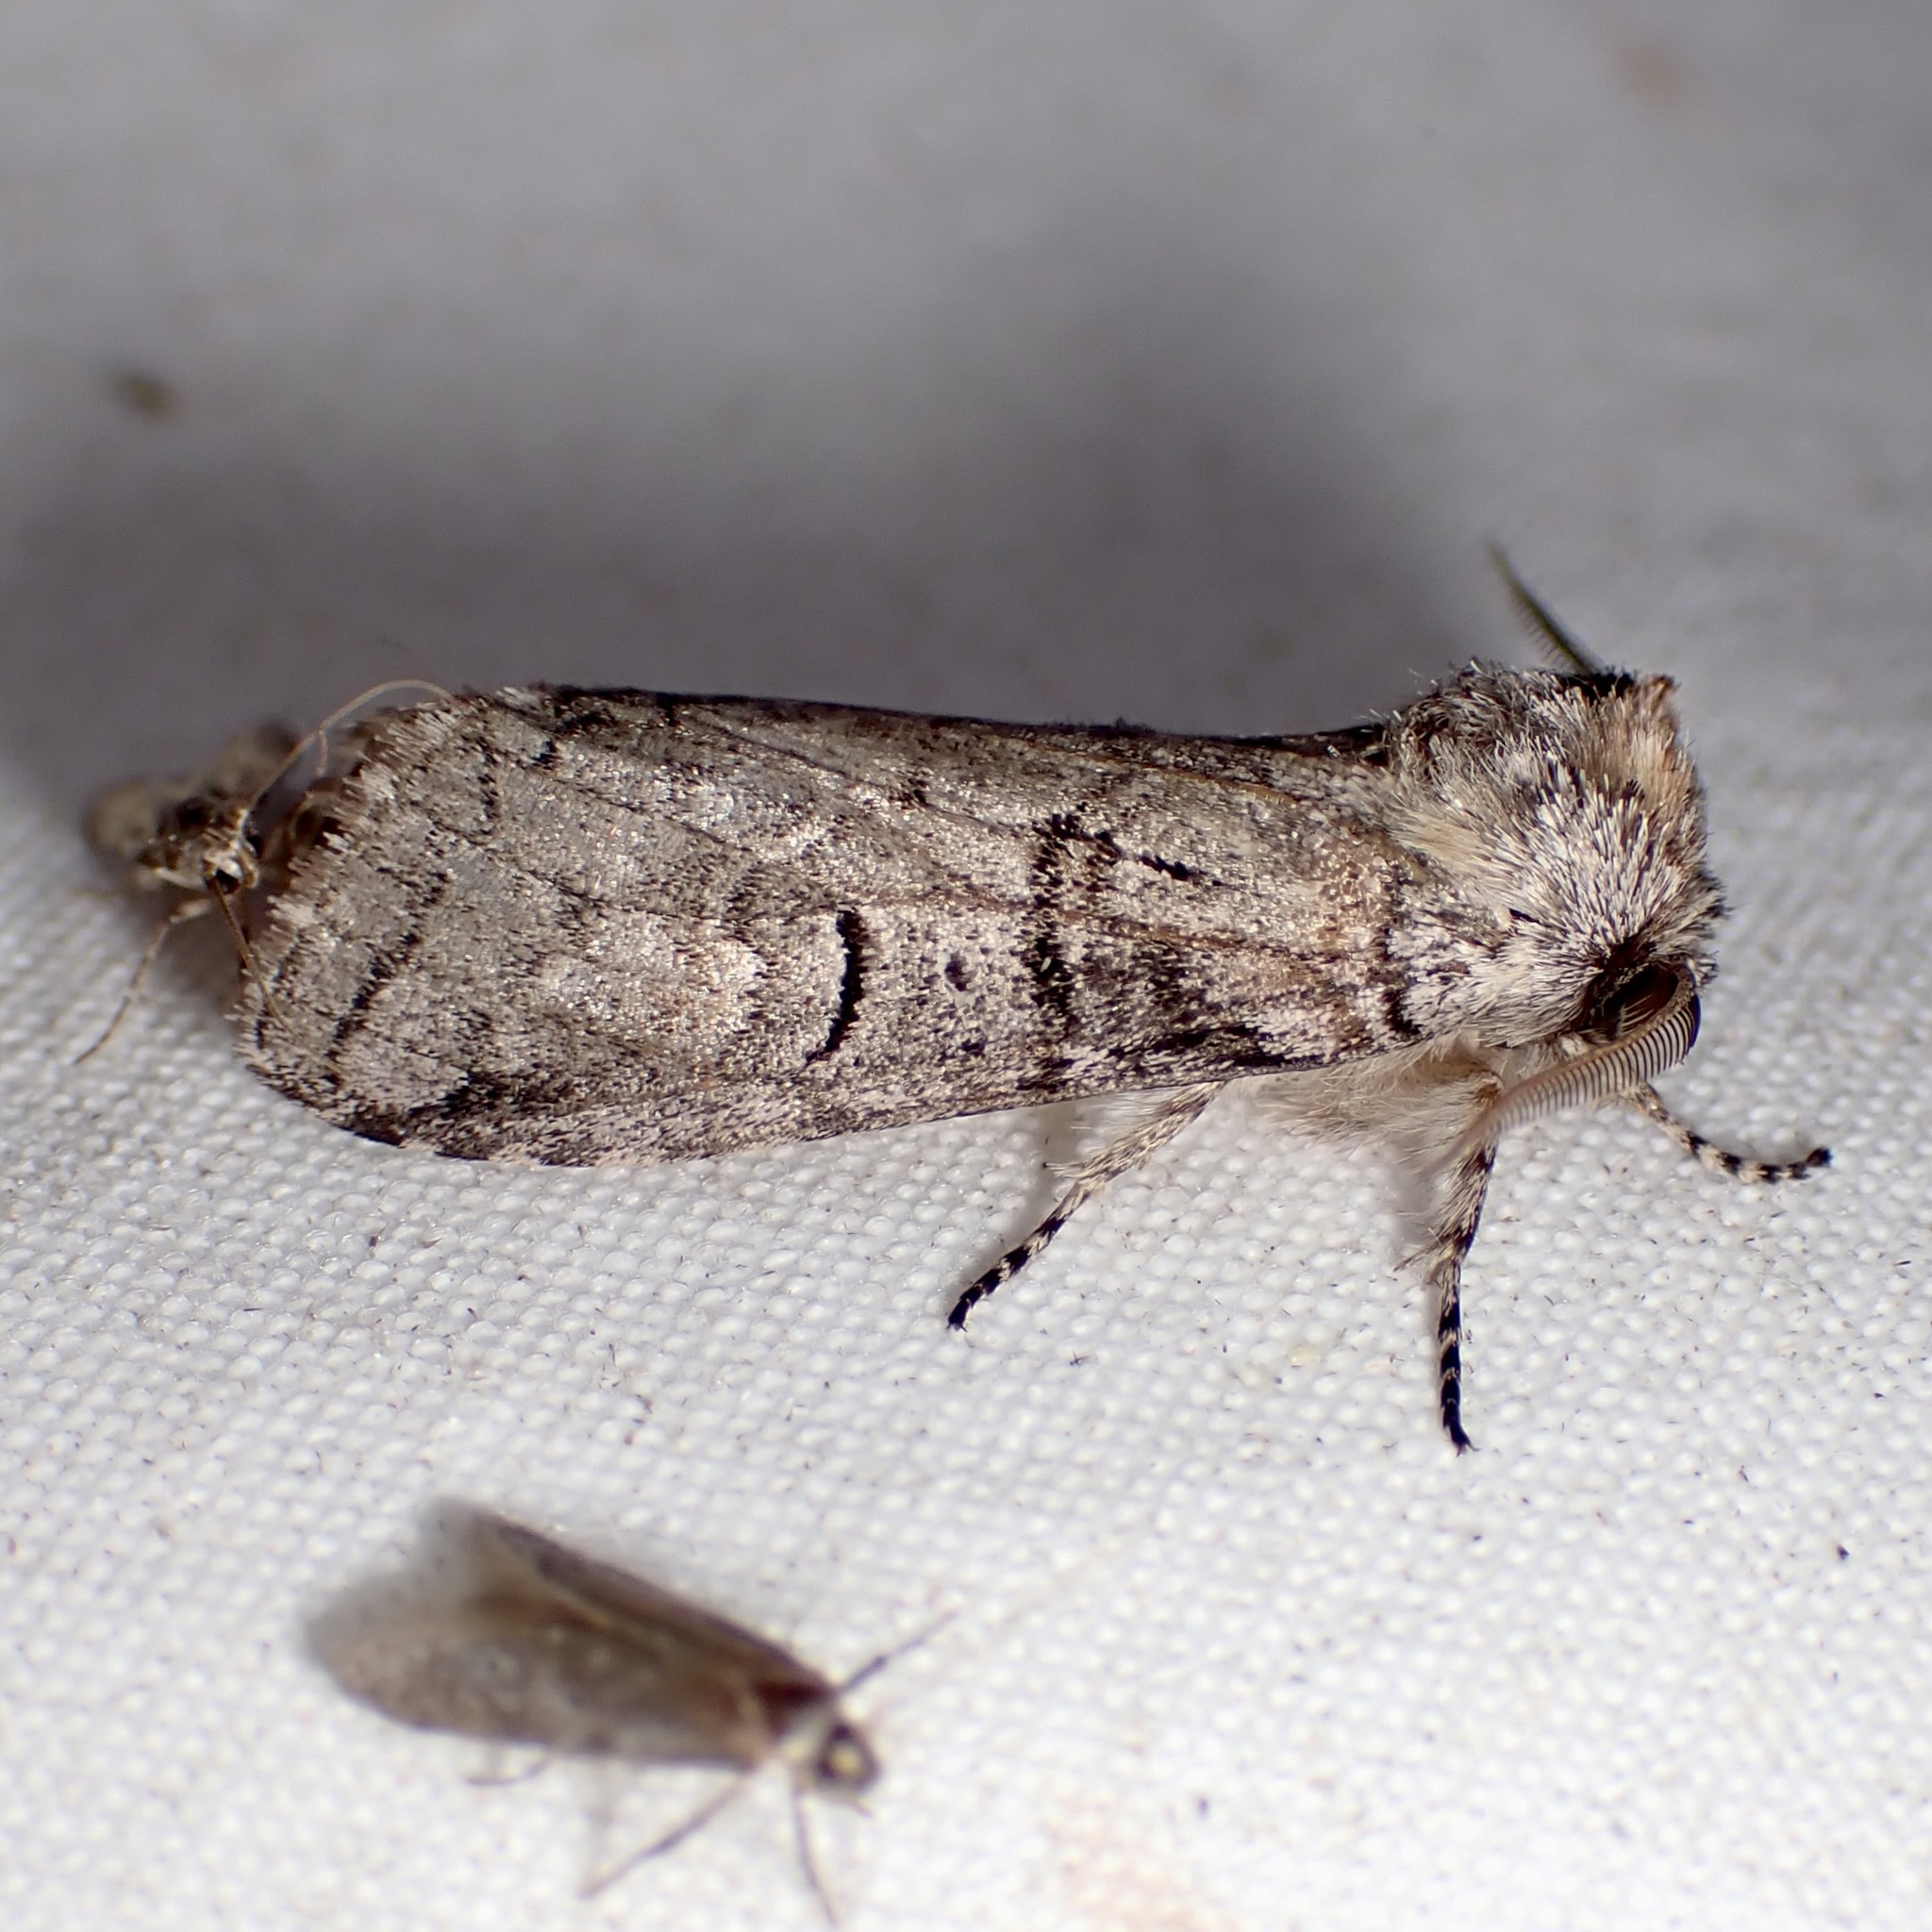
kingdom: Animalia
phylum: Arthropoda
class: Insecta
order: Lepidoptera
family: Notodontidae
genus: Afilia
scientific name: Afilia oslari
